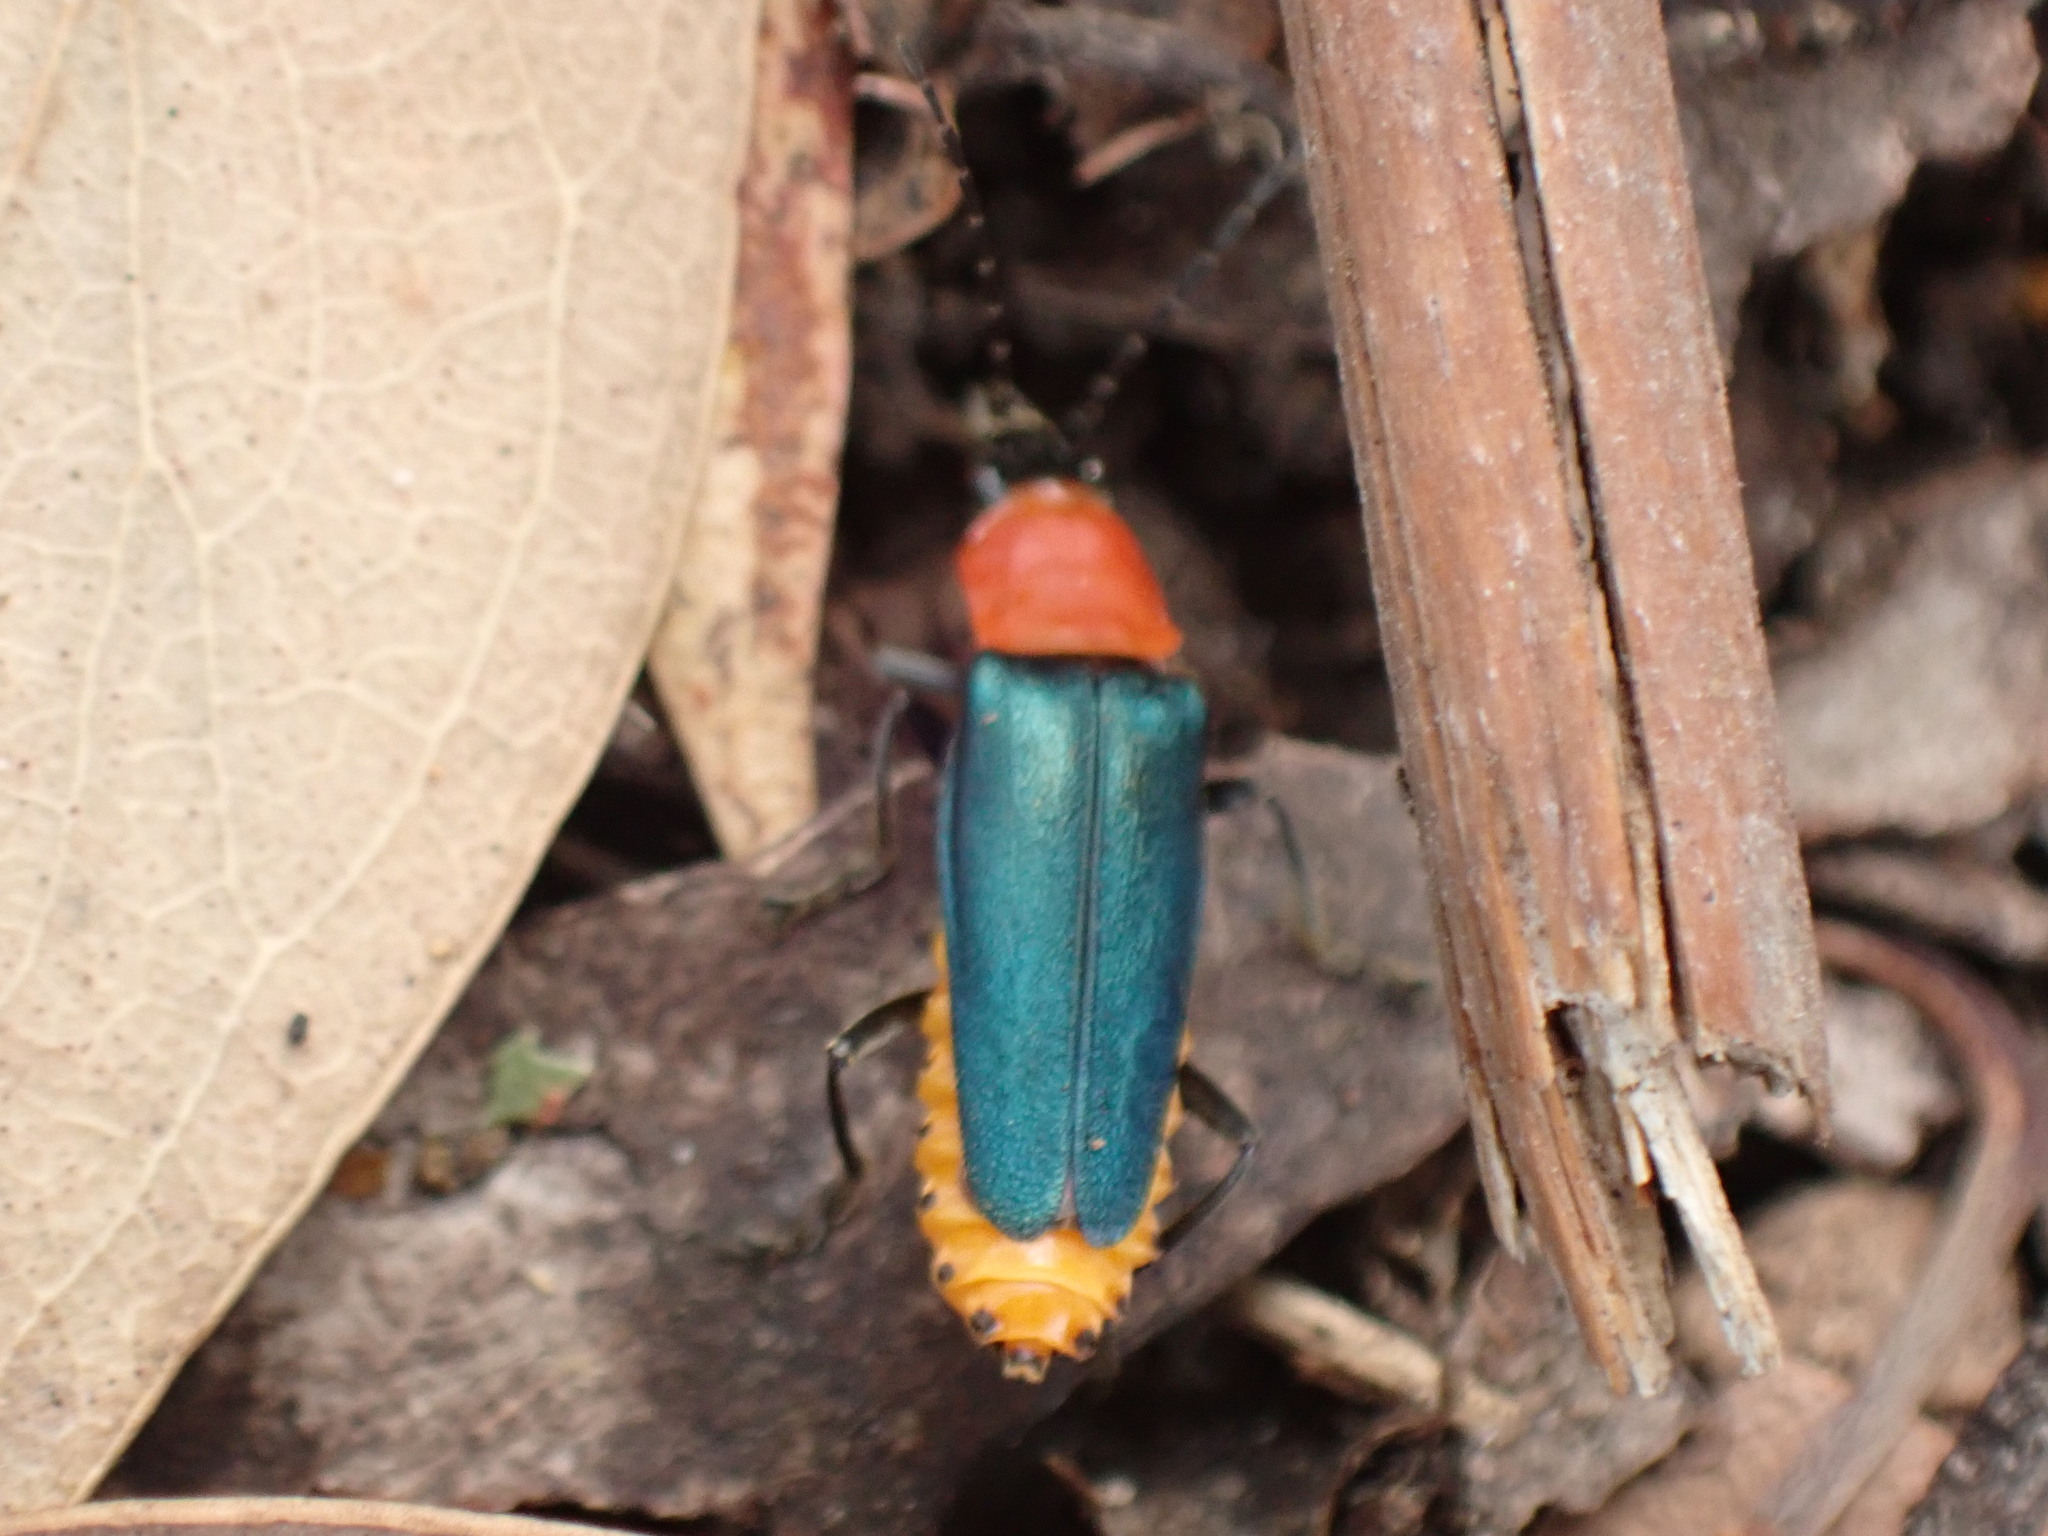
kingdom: Animalia
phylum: Arthropoda
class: Insecta
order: Coleoptera
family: Cantharidae
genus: Chauliognathus
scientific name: Chauliognathus
